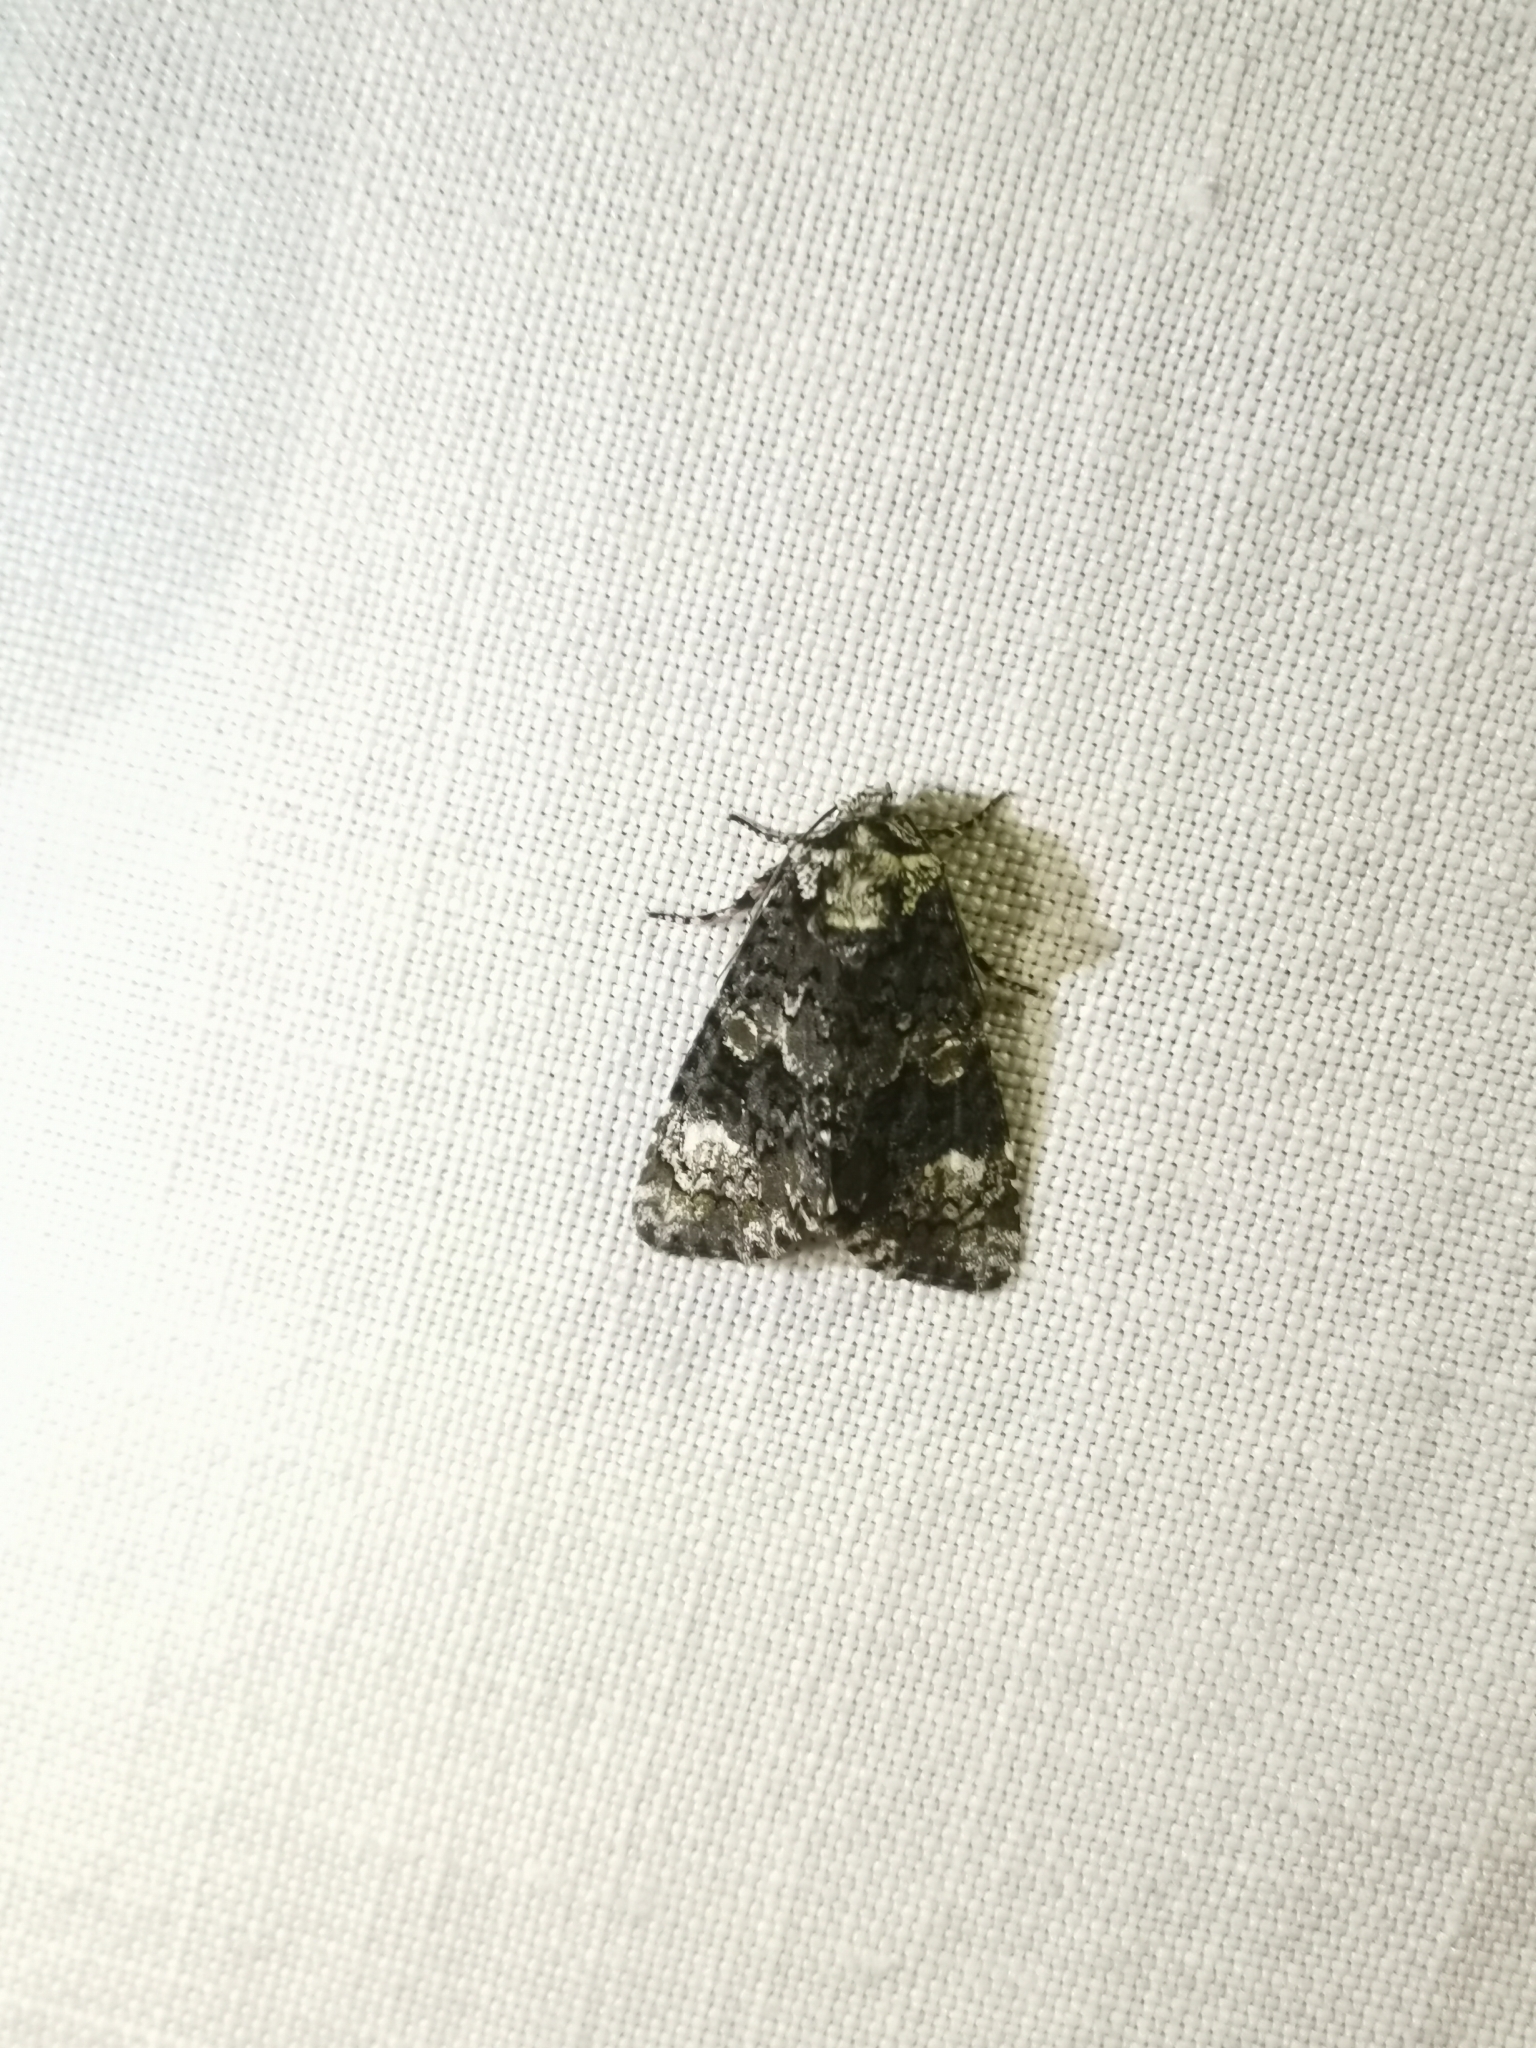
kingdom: Animalia
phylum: Arthropoda
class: Insecta
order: Lepidoptera
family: Noctuidae
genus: Craniophora
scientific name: Craniophora ligustri
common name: Coronet
